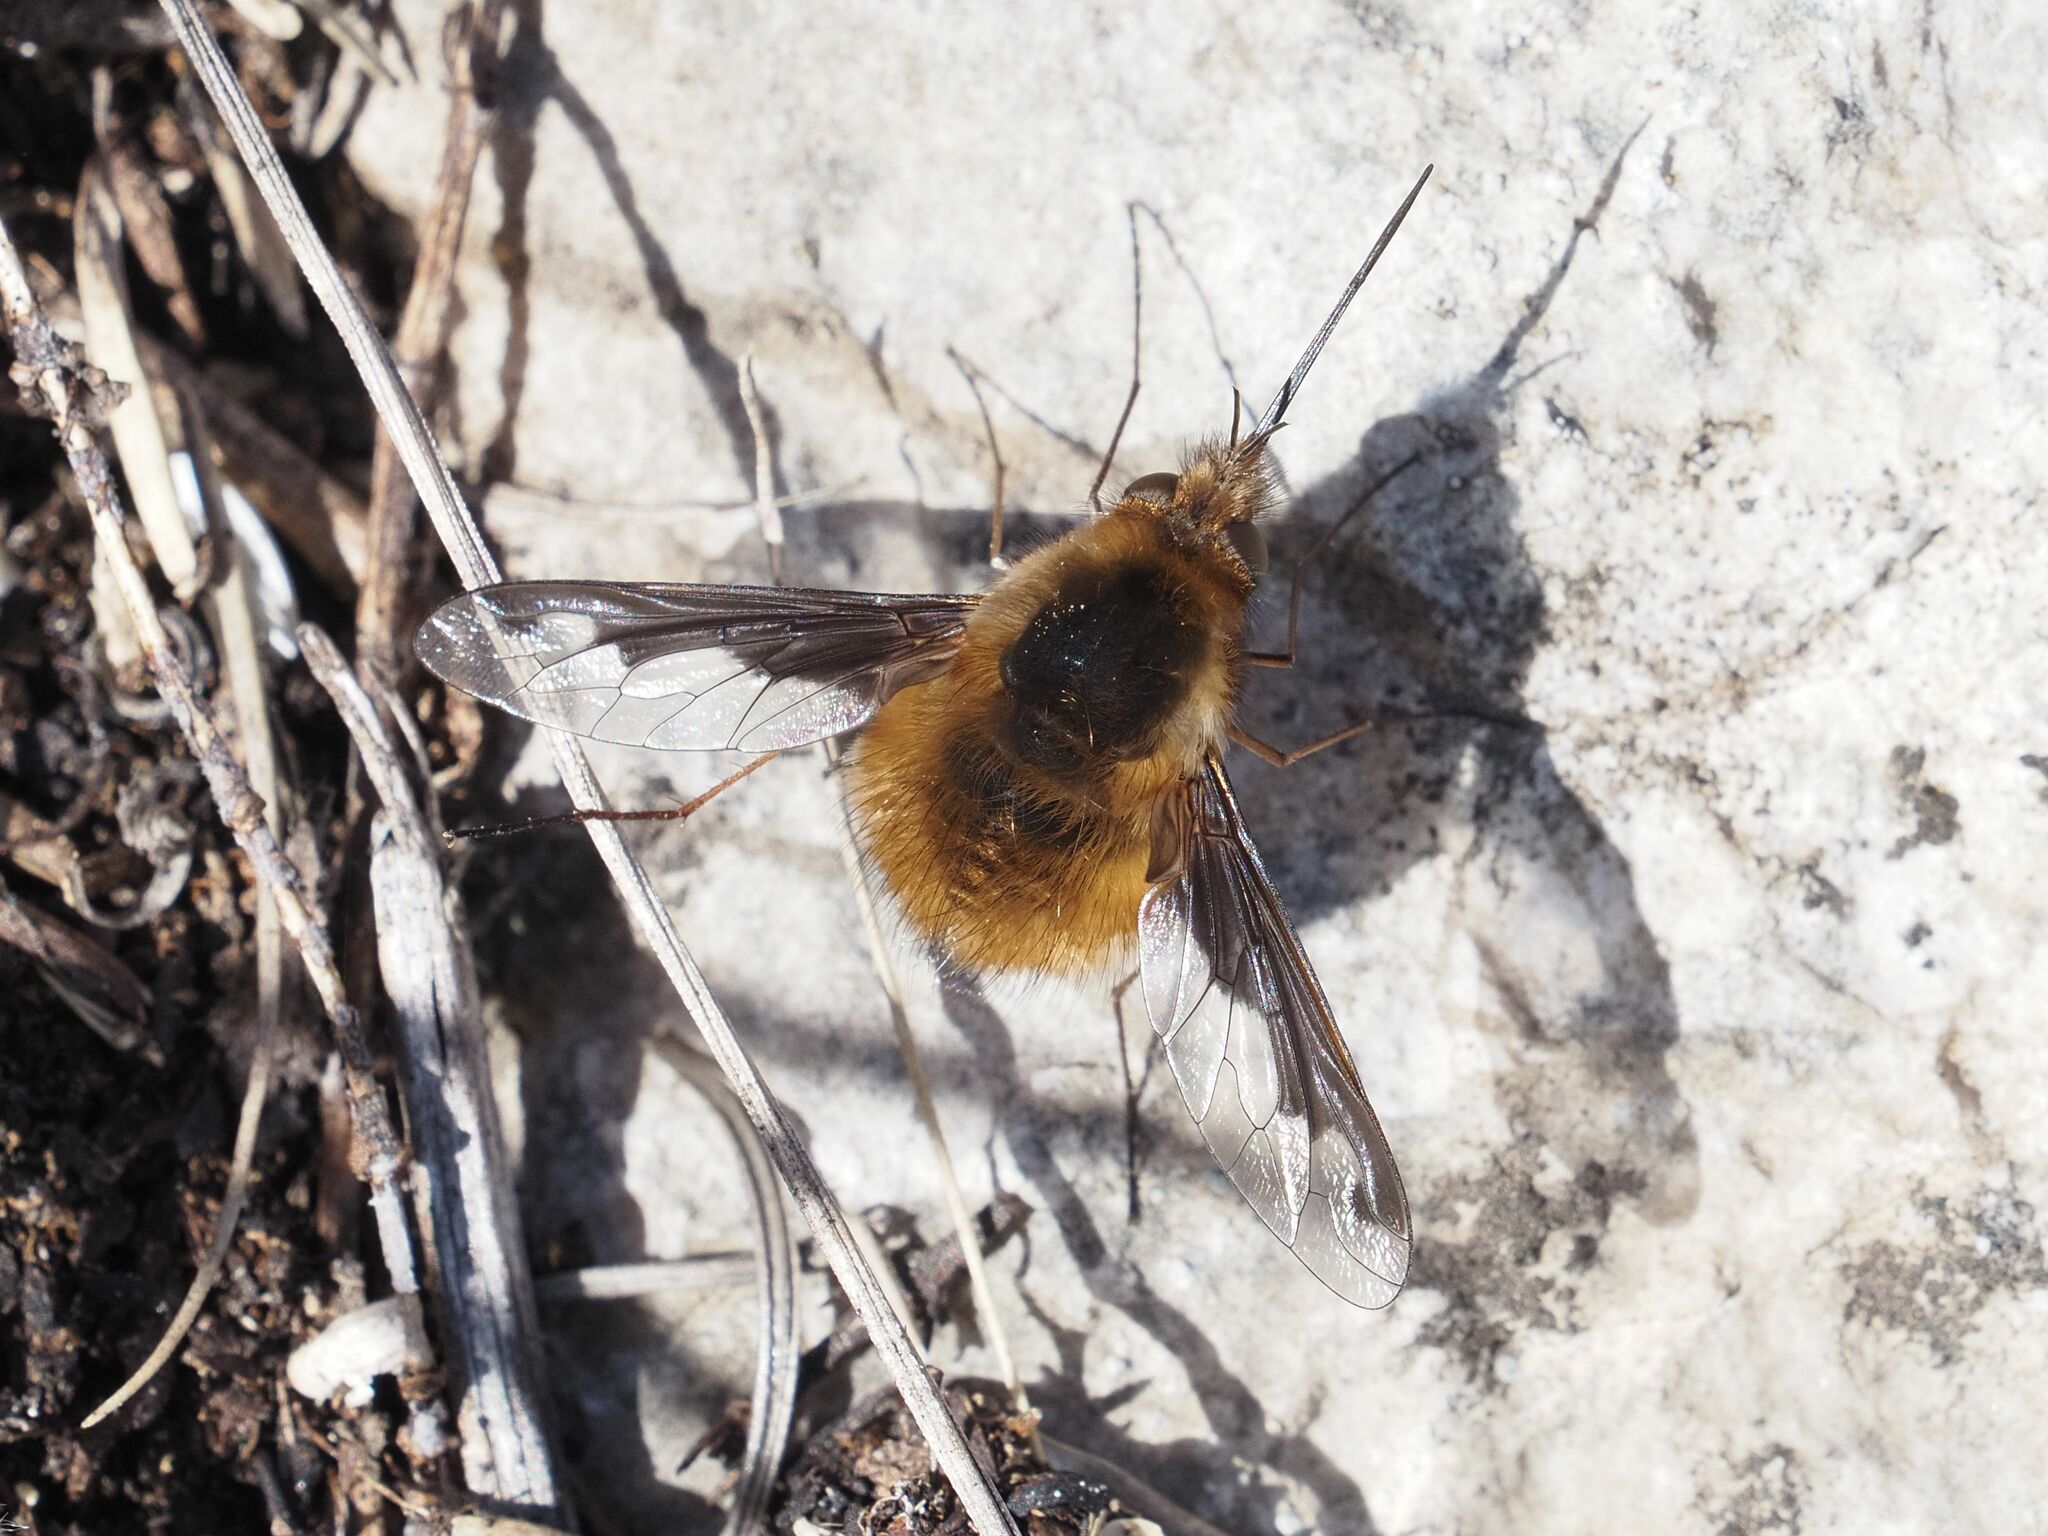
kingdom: Animalia
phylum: Arthropoda
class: Insecta
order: Diptera
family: Bombyliidae
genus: Bombylius
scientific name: Bombylius major
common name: Bee fly
